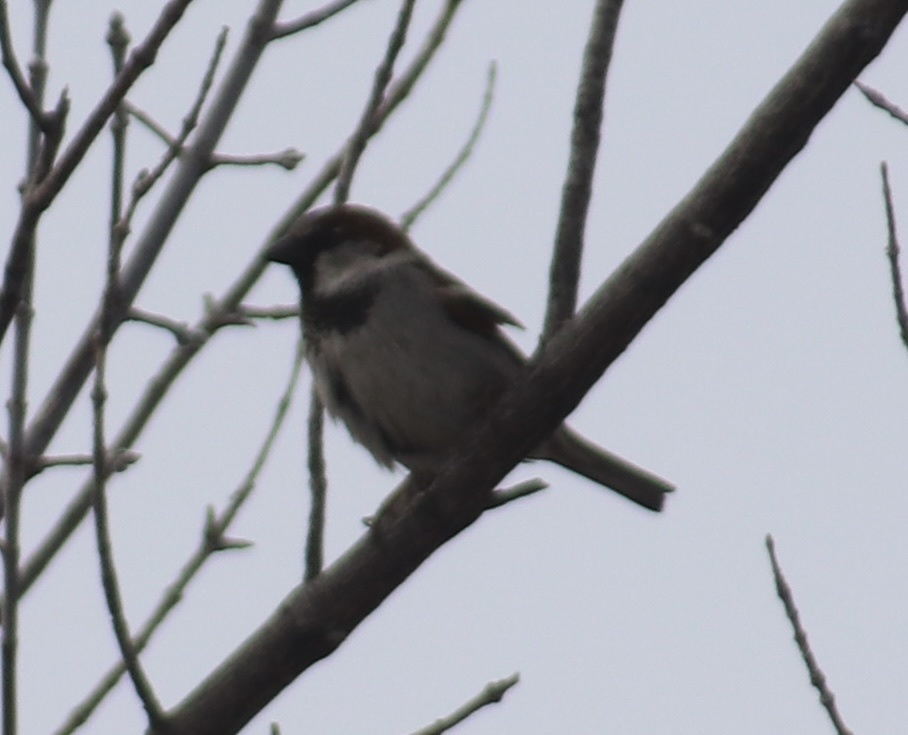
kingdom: Animalia
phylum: Chordata
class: Aves
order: Passeriformes
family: Passeridae
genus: Passer
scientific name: Passer domesticus
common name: House sparrow
